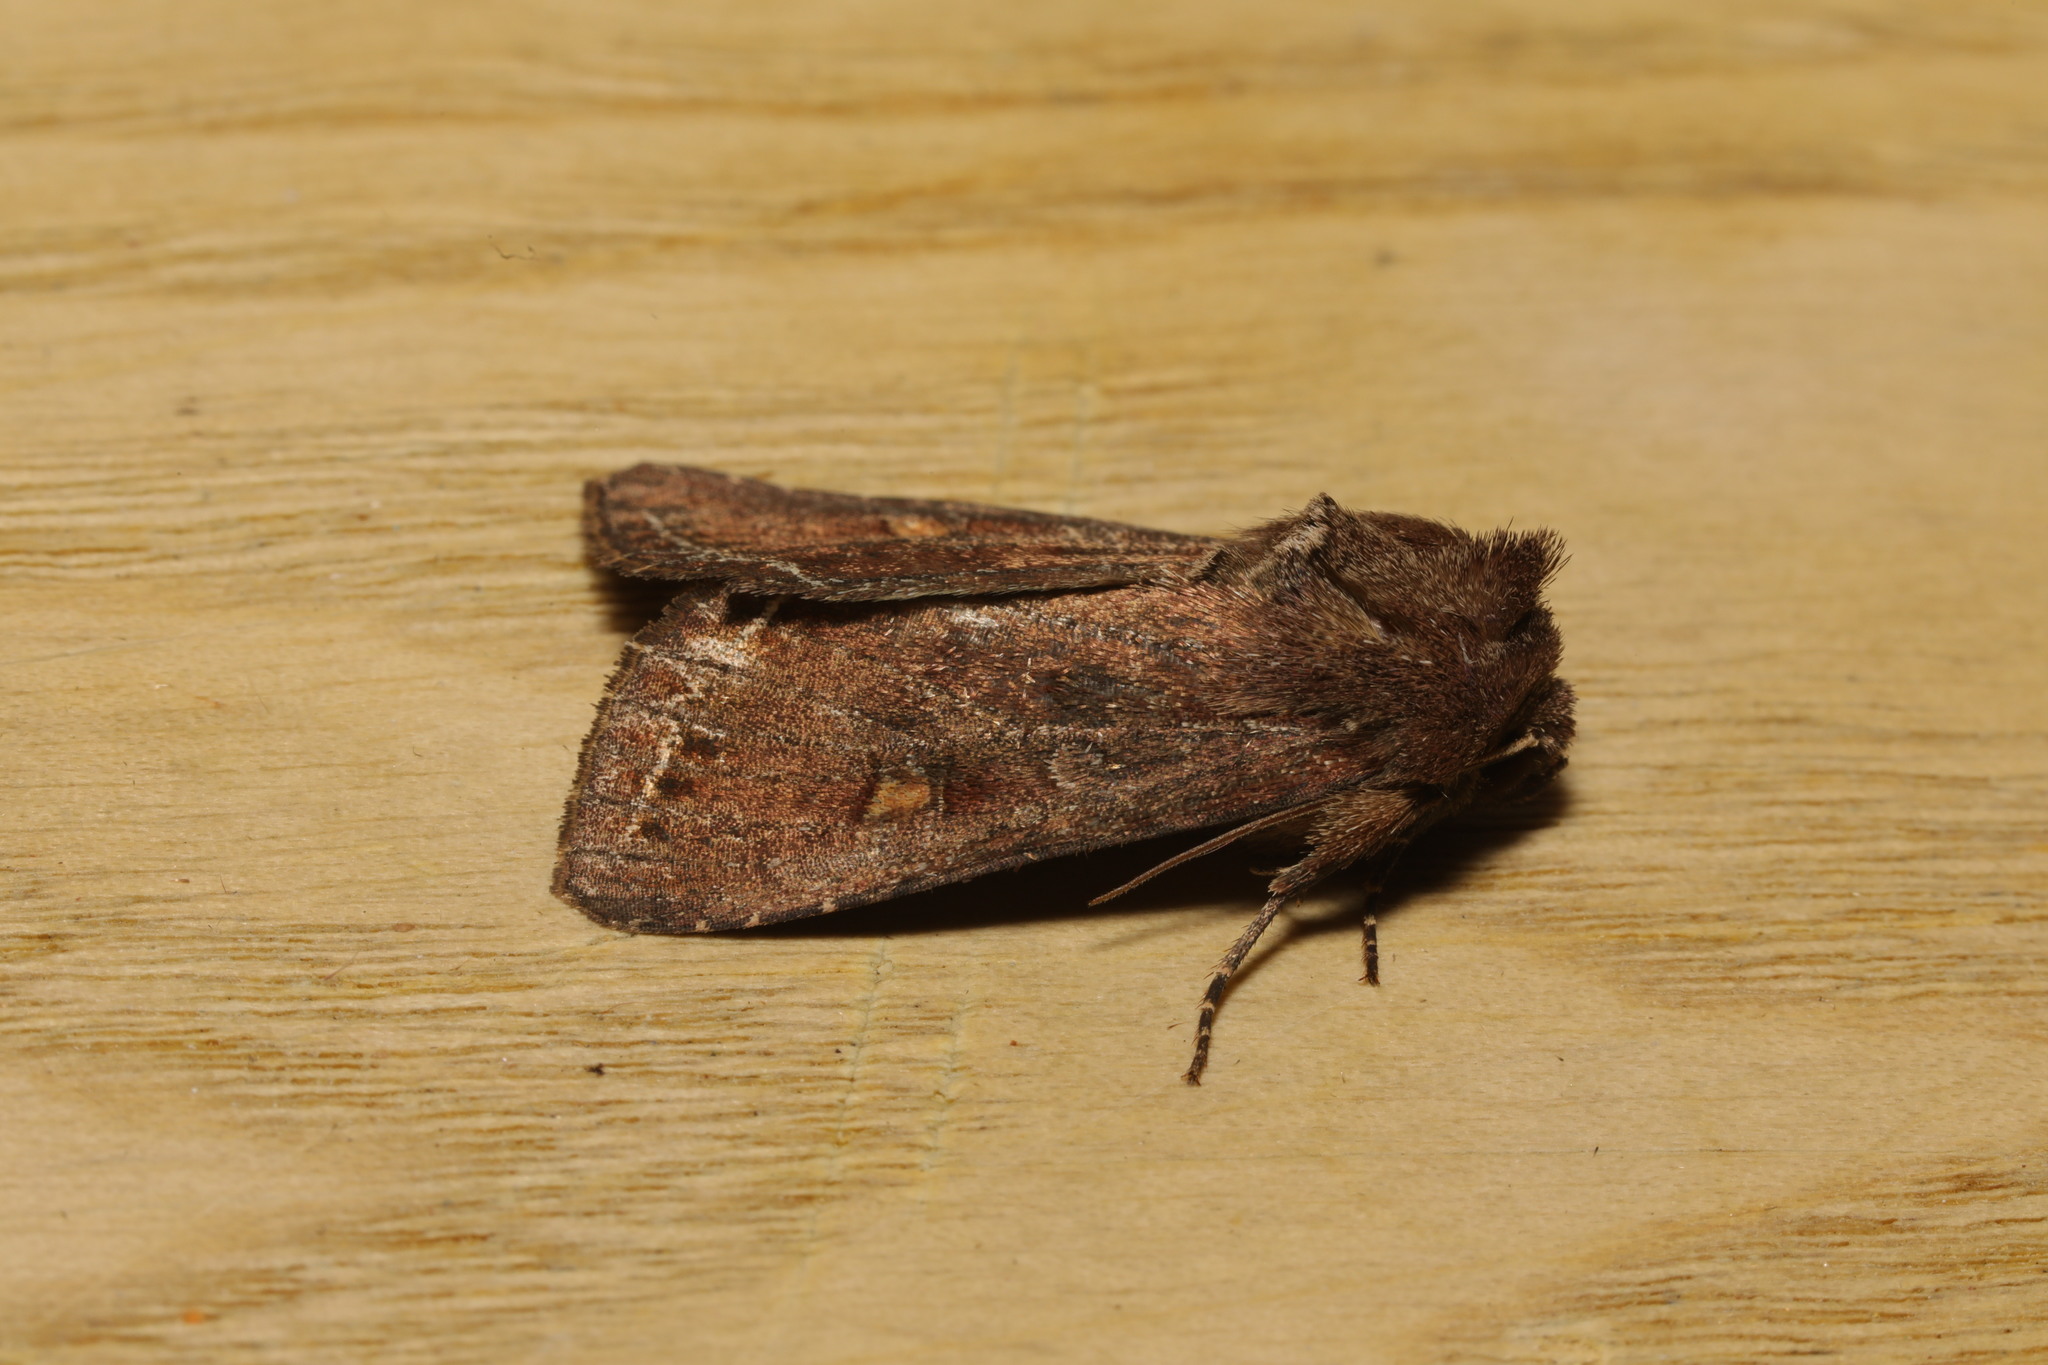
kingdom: Animalia
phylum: Arthropoda
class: Insecta
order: Lepidoptera
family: Noctuidae
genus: Lacanobia
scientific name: Lacanobia oleracea
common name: Bright-line brown-eye
